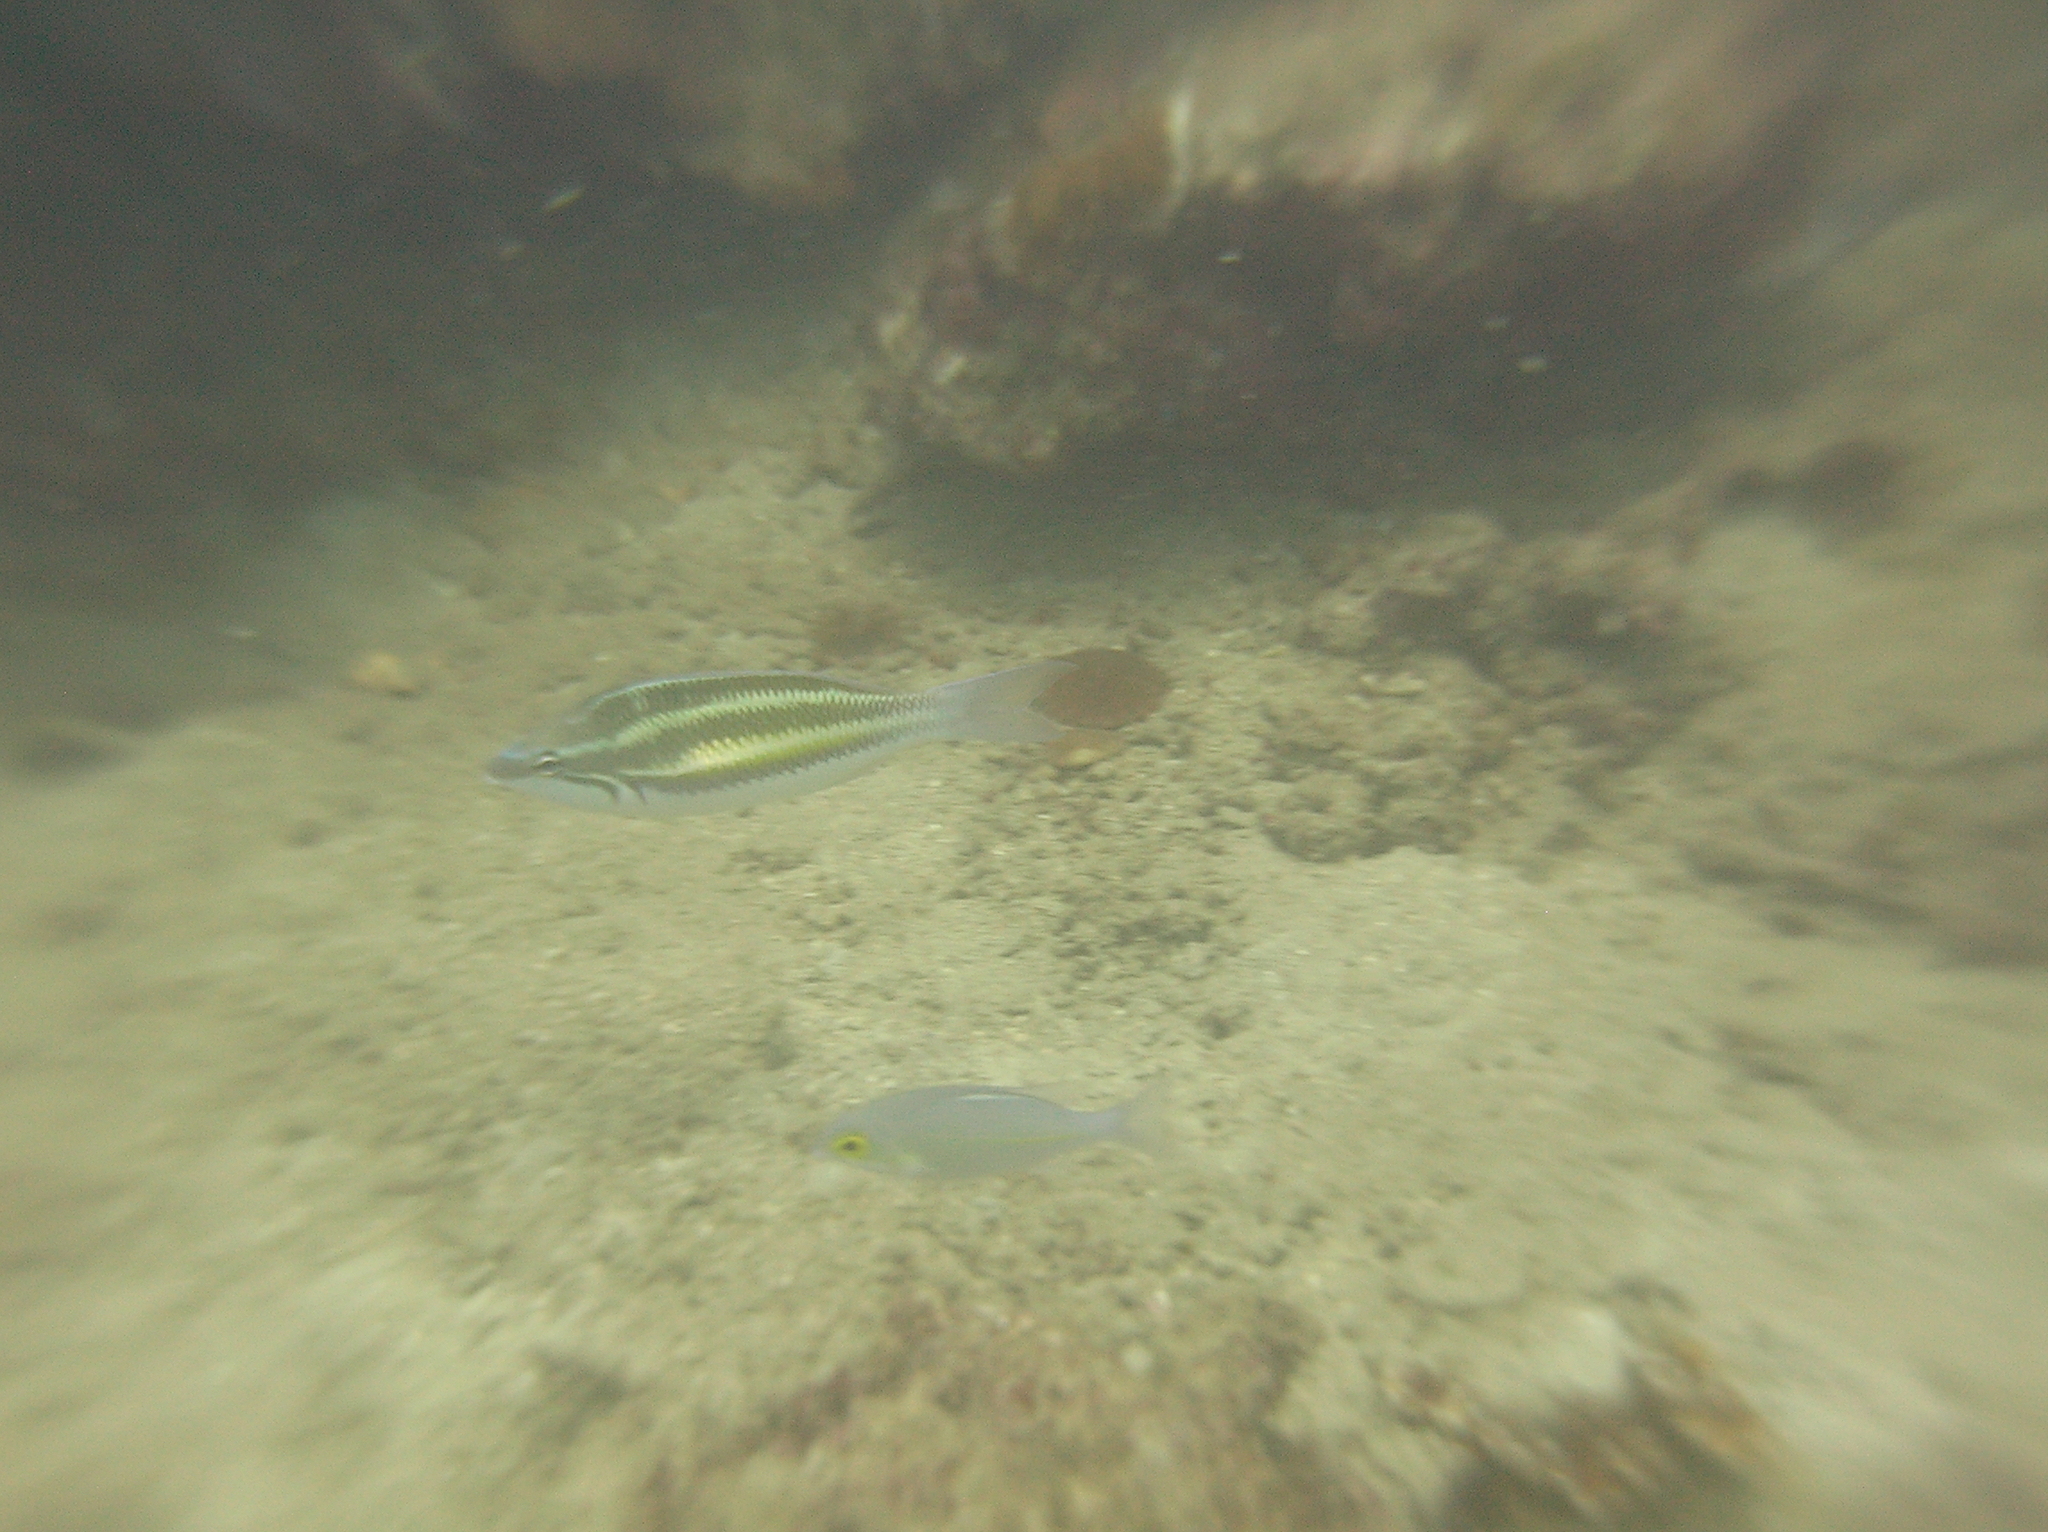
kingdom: Animalia
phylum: Chordata
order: Perciformes
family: Nemipteridae
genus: Pentapodus
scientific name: Pentapodus trivittatus
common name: Three-striped whiptail
